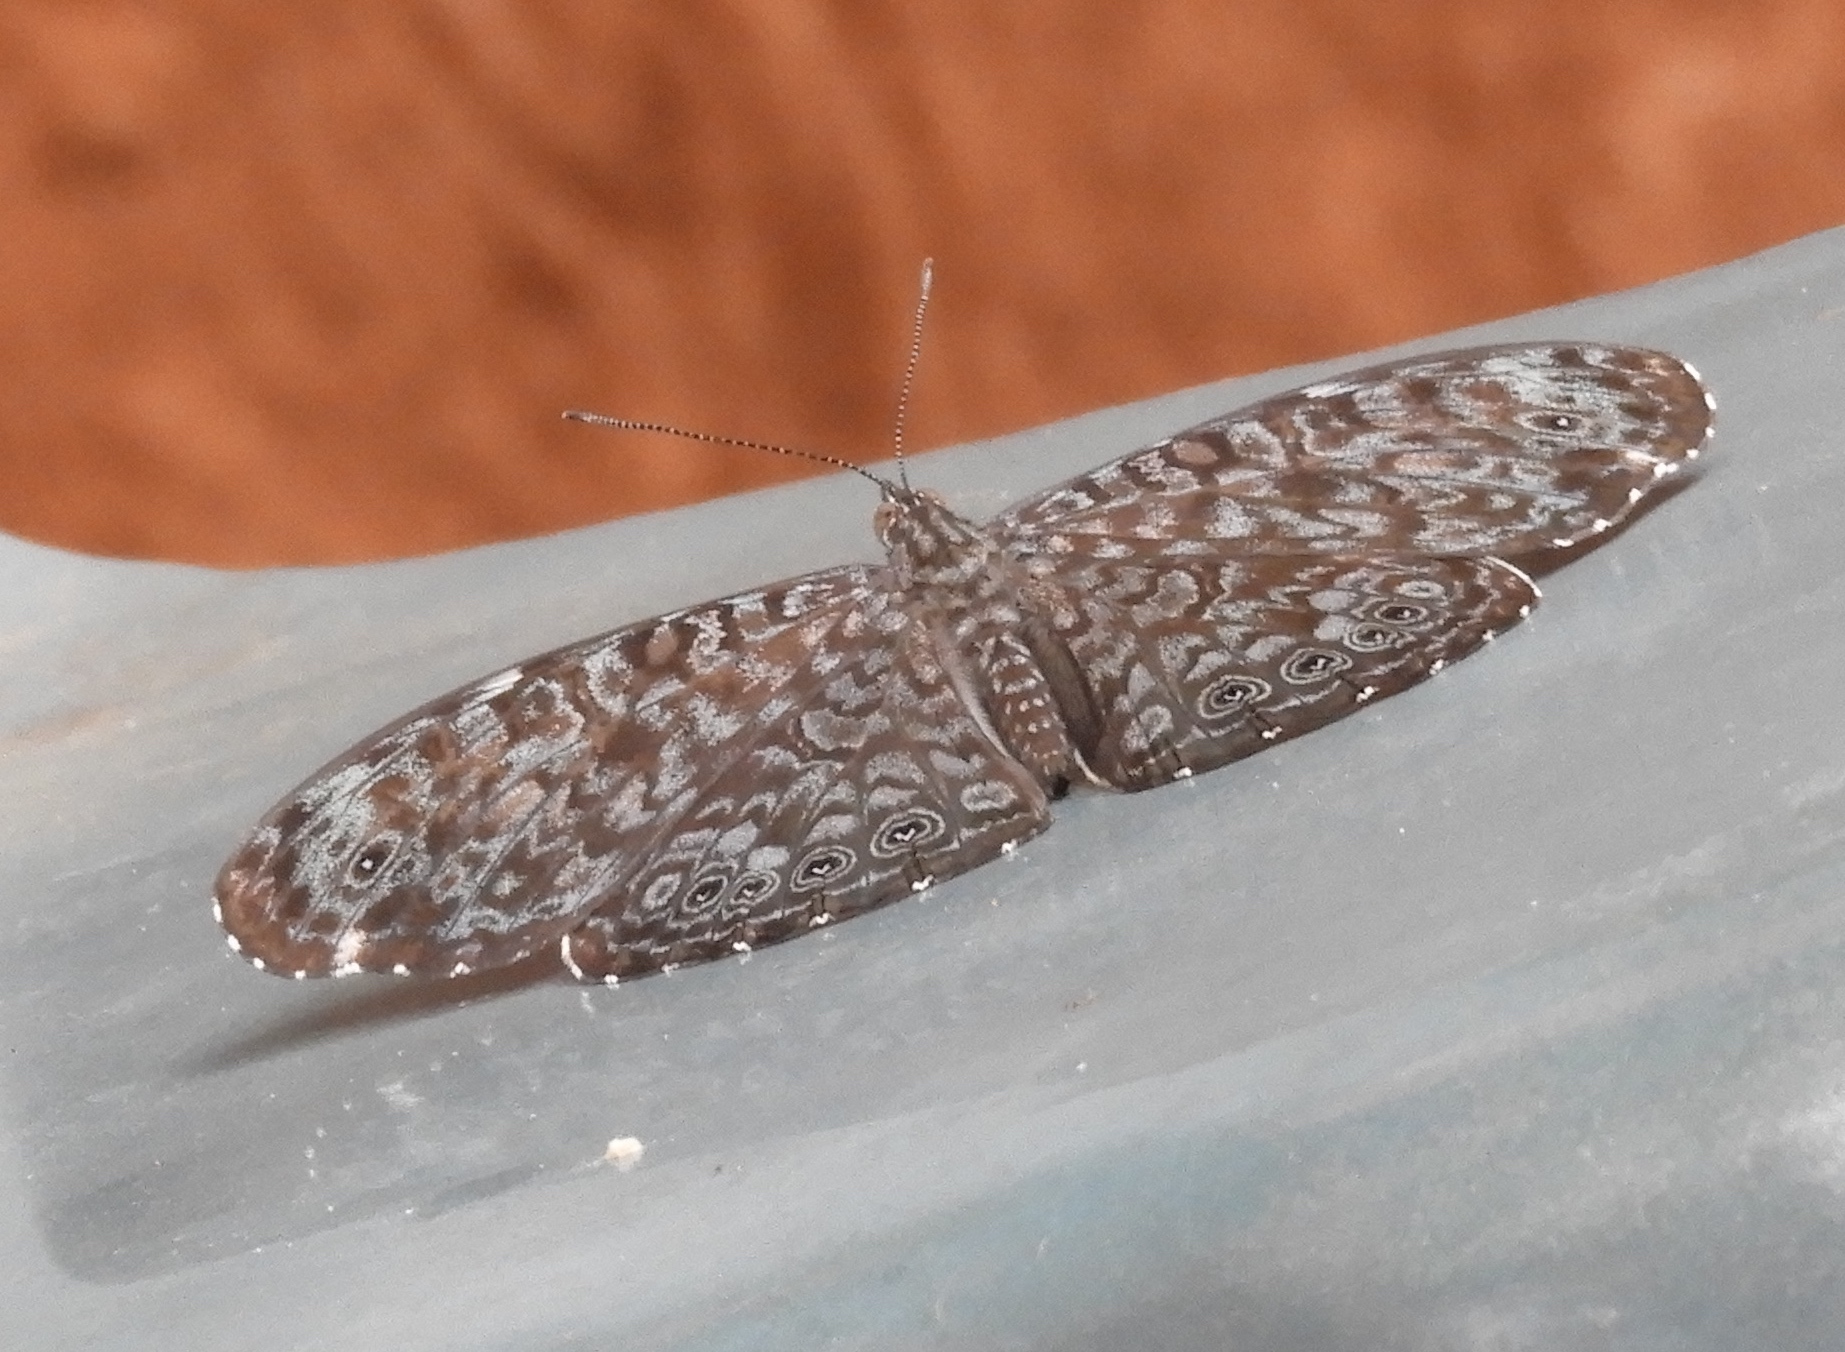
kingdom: Animalia
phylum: Arthropoda
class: Insecta
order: Lepidoptera
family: Nymphalidae
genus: Hamadryas
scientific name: Hamadryas lelaps
